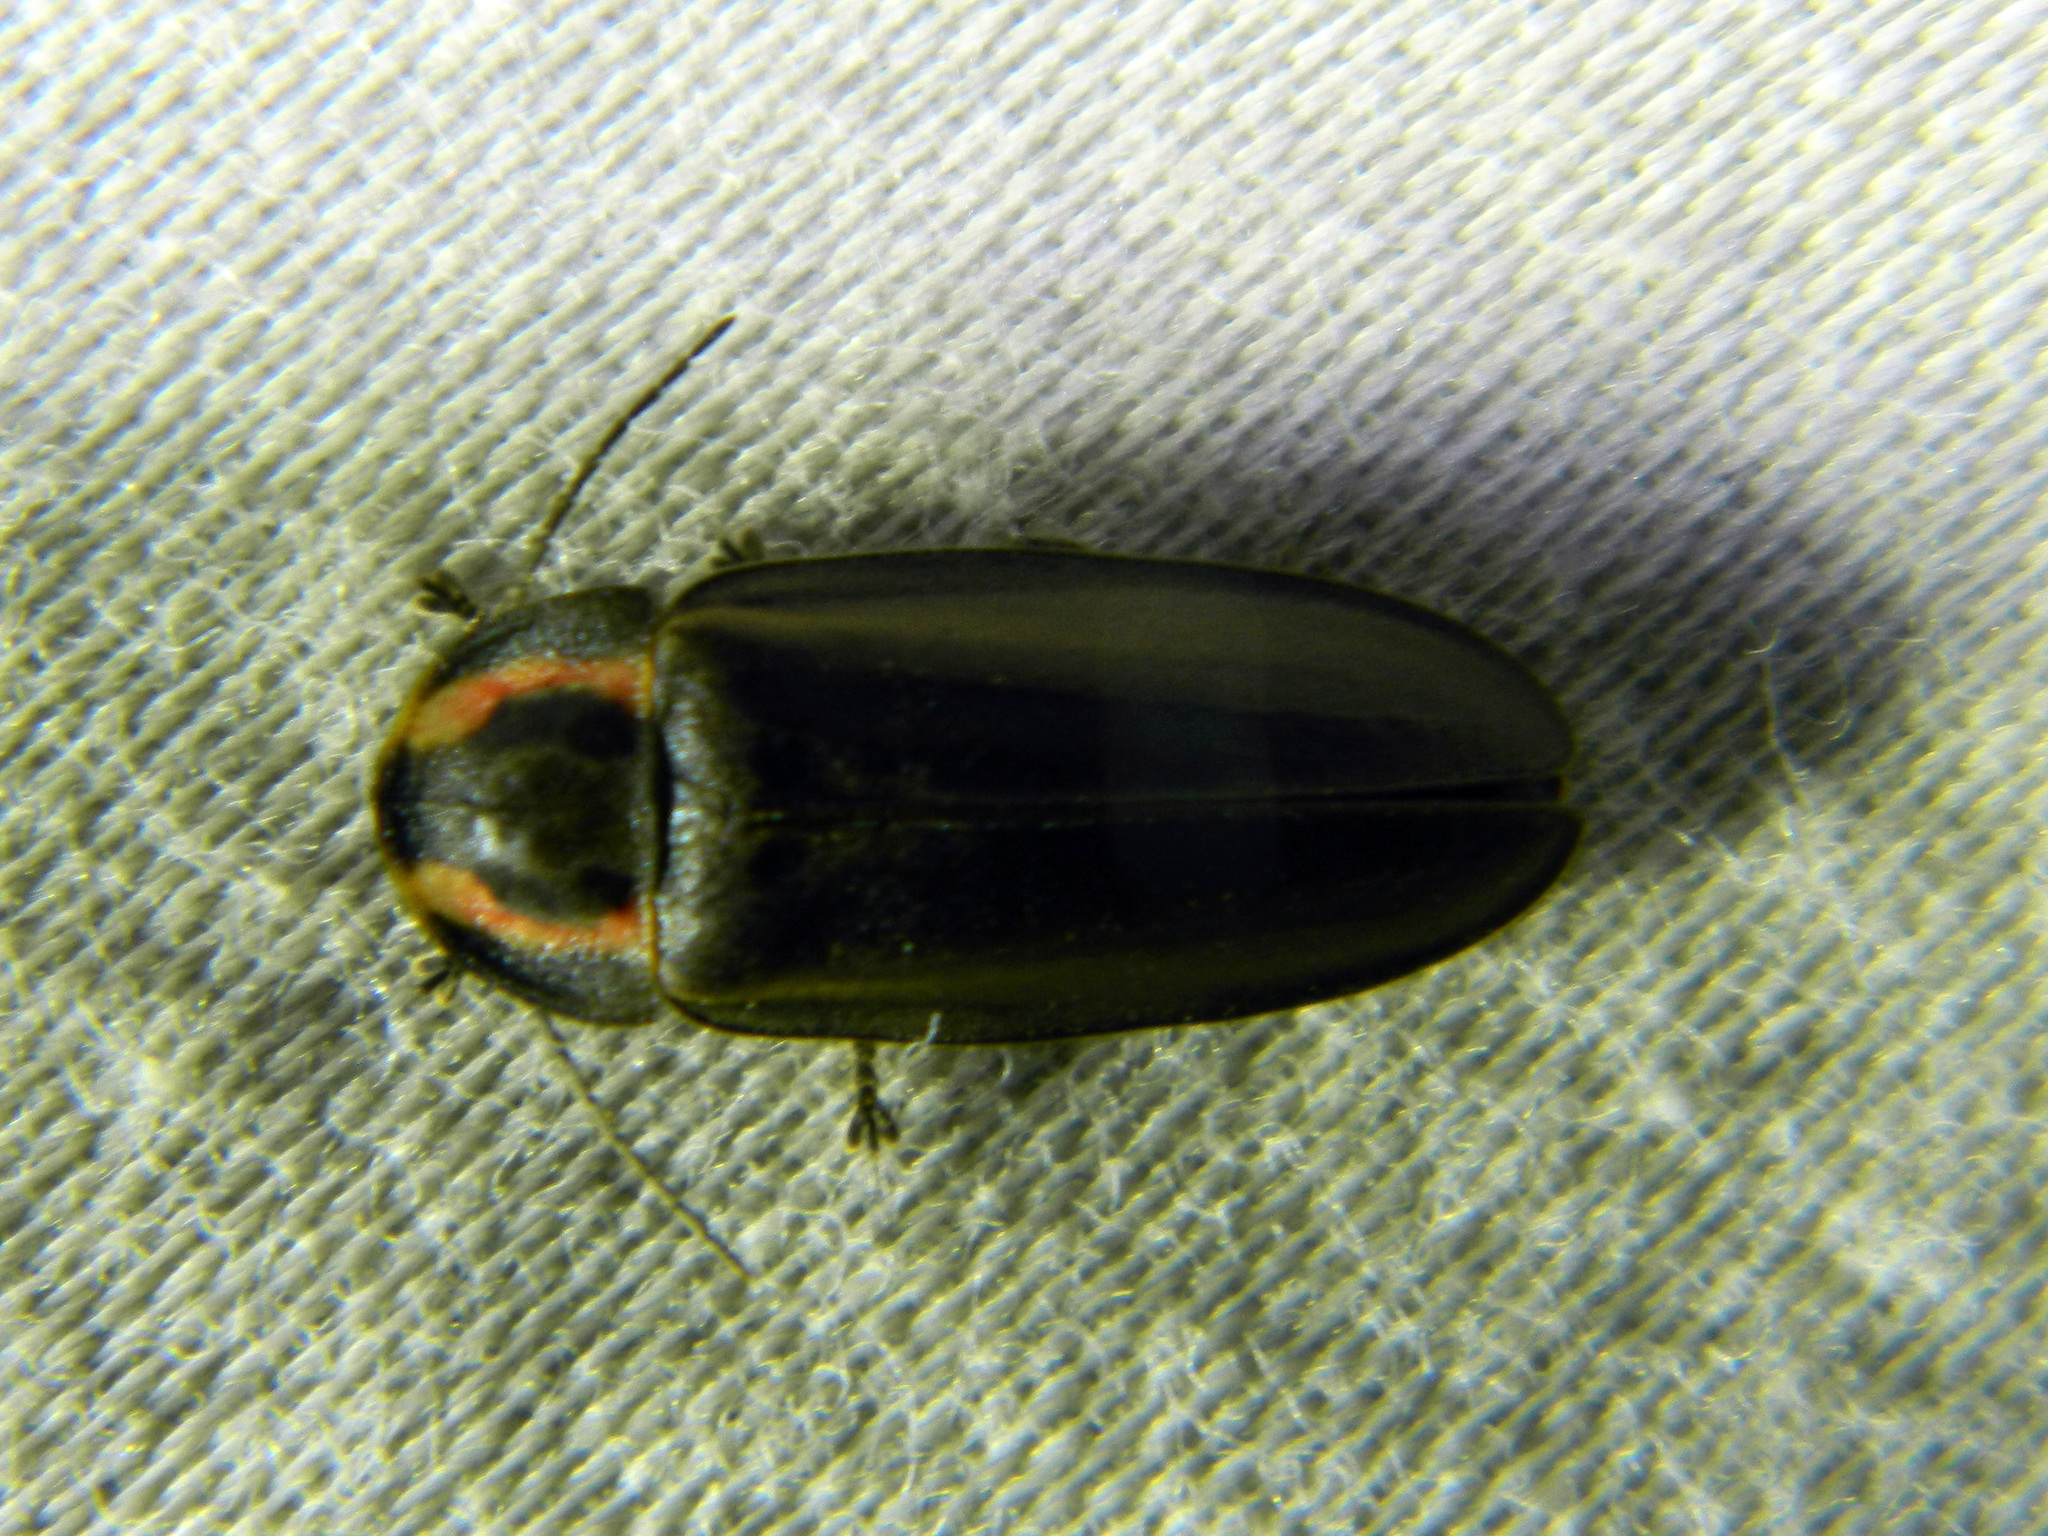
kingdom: Animalia
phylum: Arthropoda
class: Insecta
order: Coleoptera
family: Lampyridae
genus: Photinus
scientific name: Photinus corrusca
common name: Winter firefly
